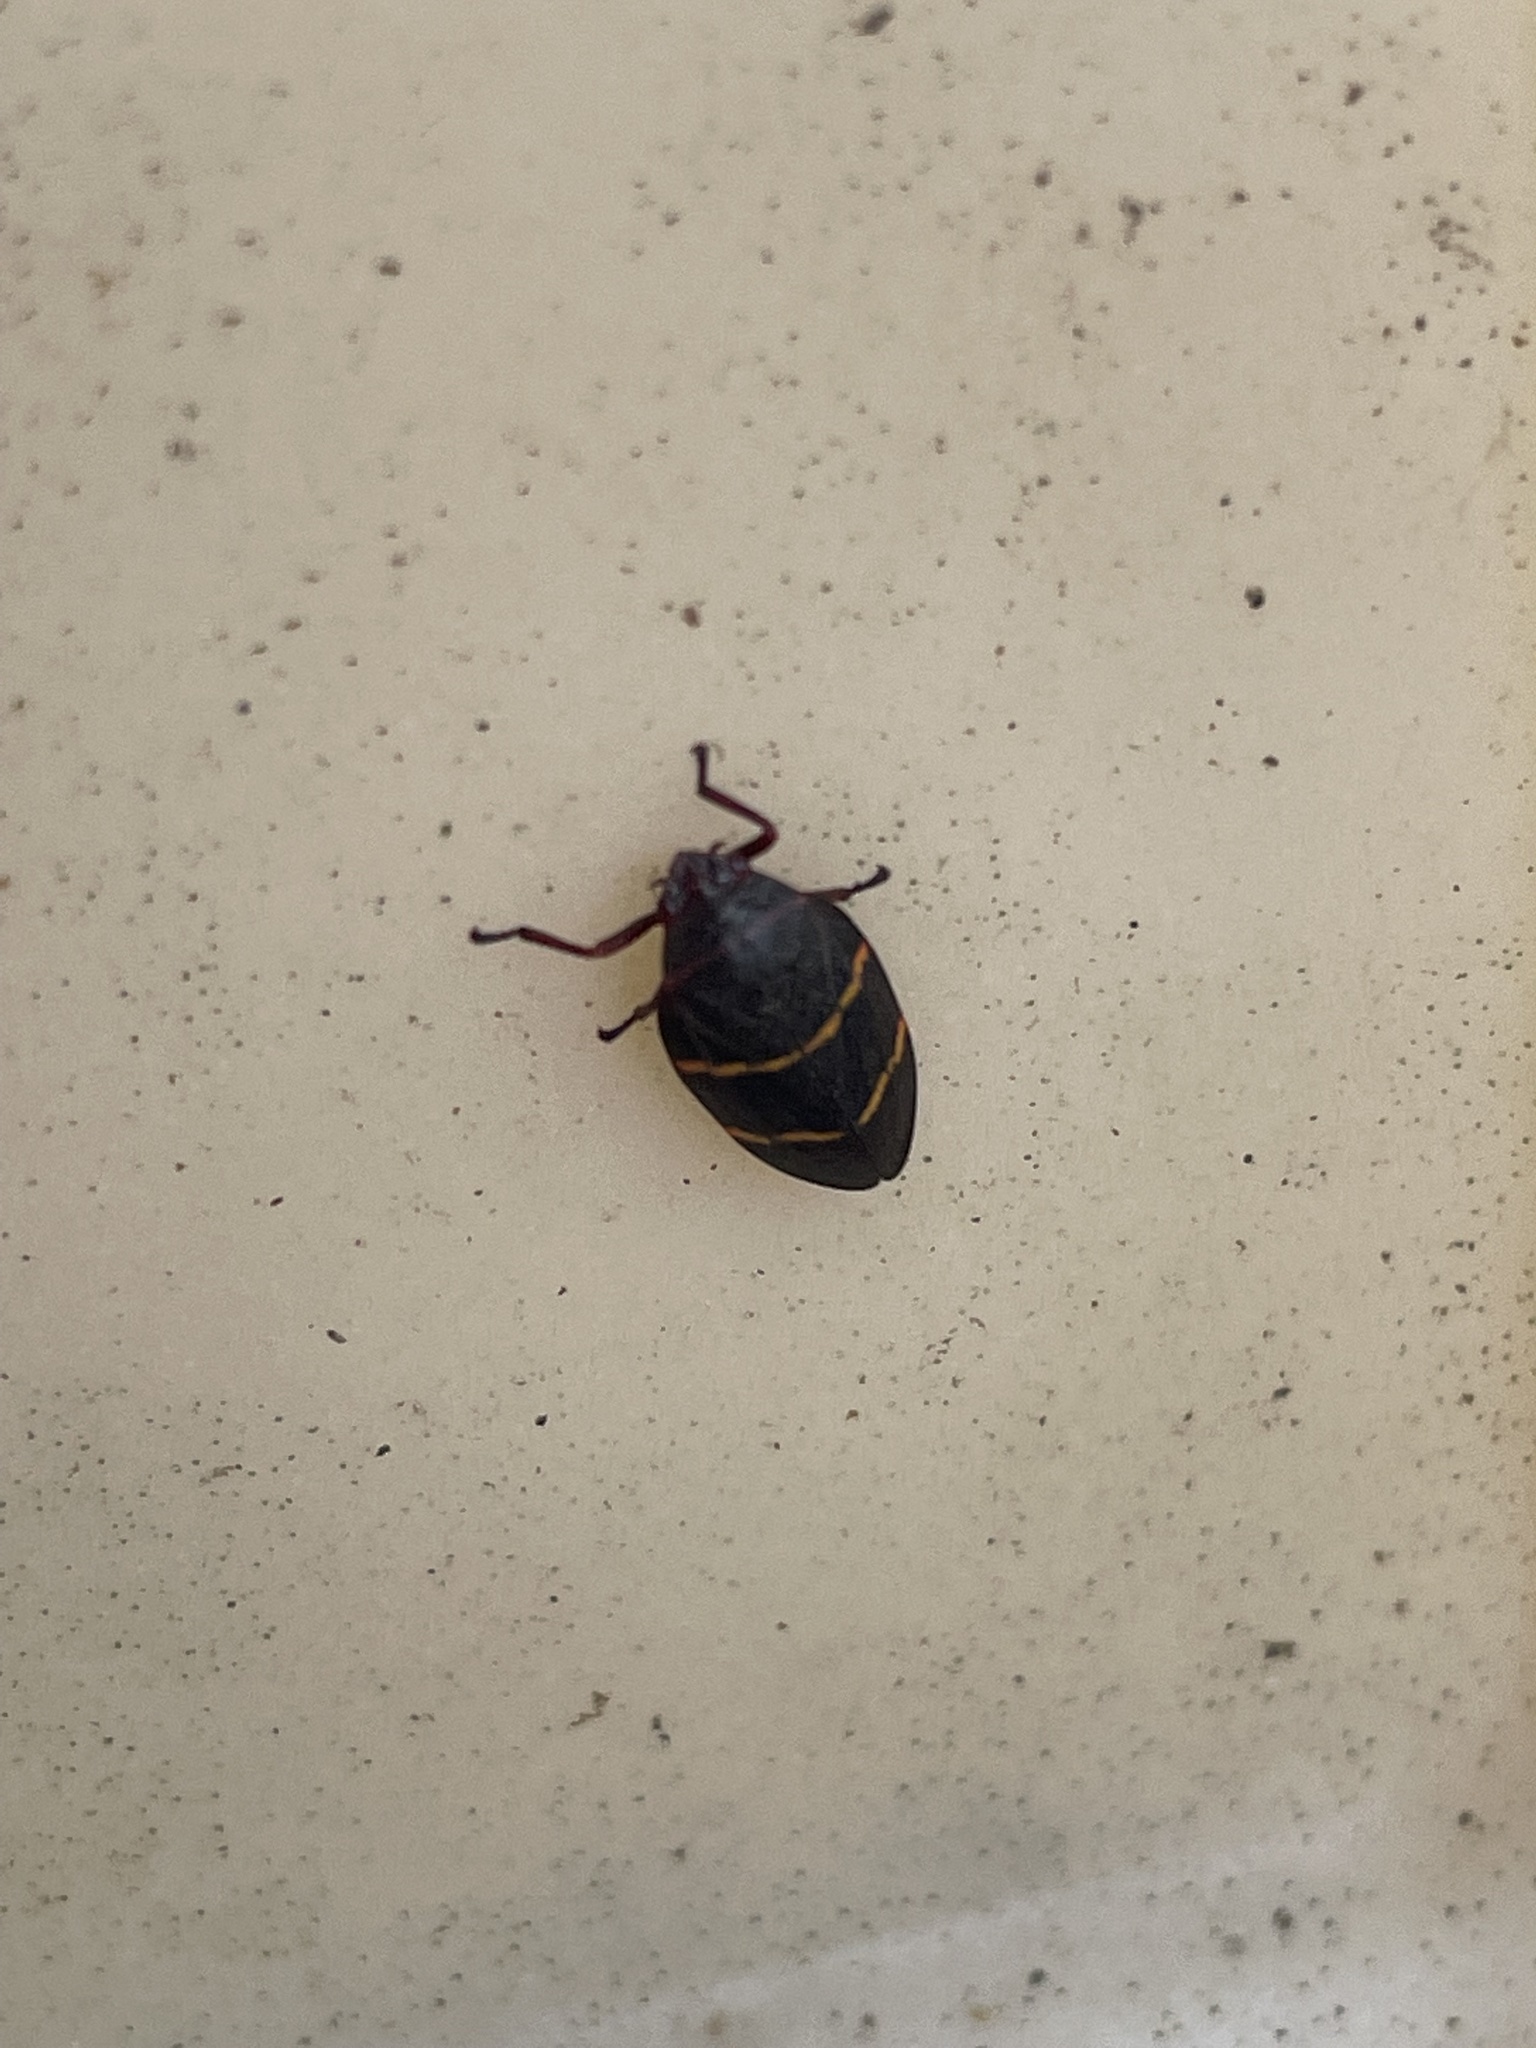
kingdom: Animalia
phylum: Arthropoda
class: Insecta
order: Hemiptera
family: Cercopidae
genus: Prosapia
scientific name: Prosapia bicincta
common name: Twolined spittlebug
